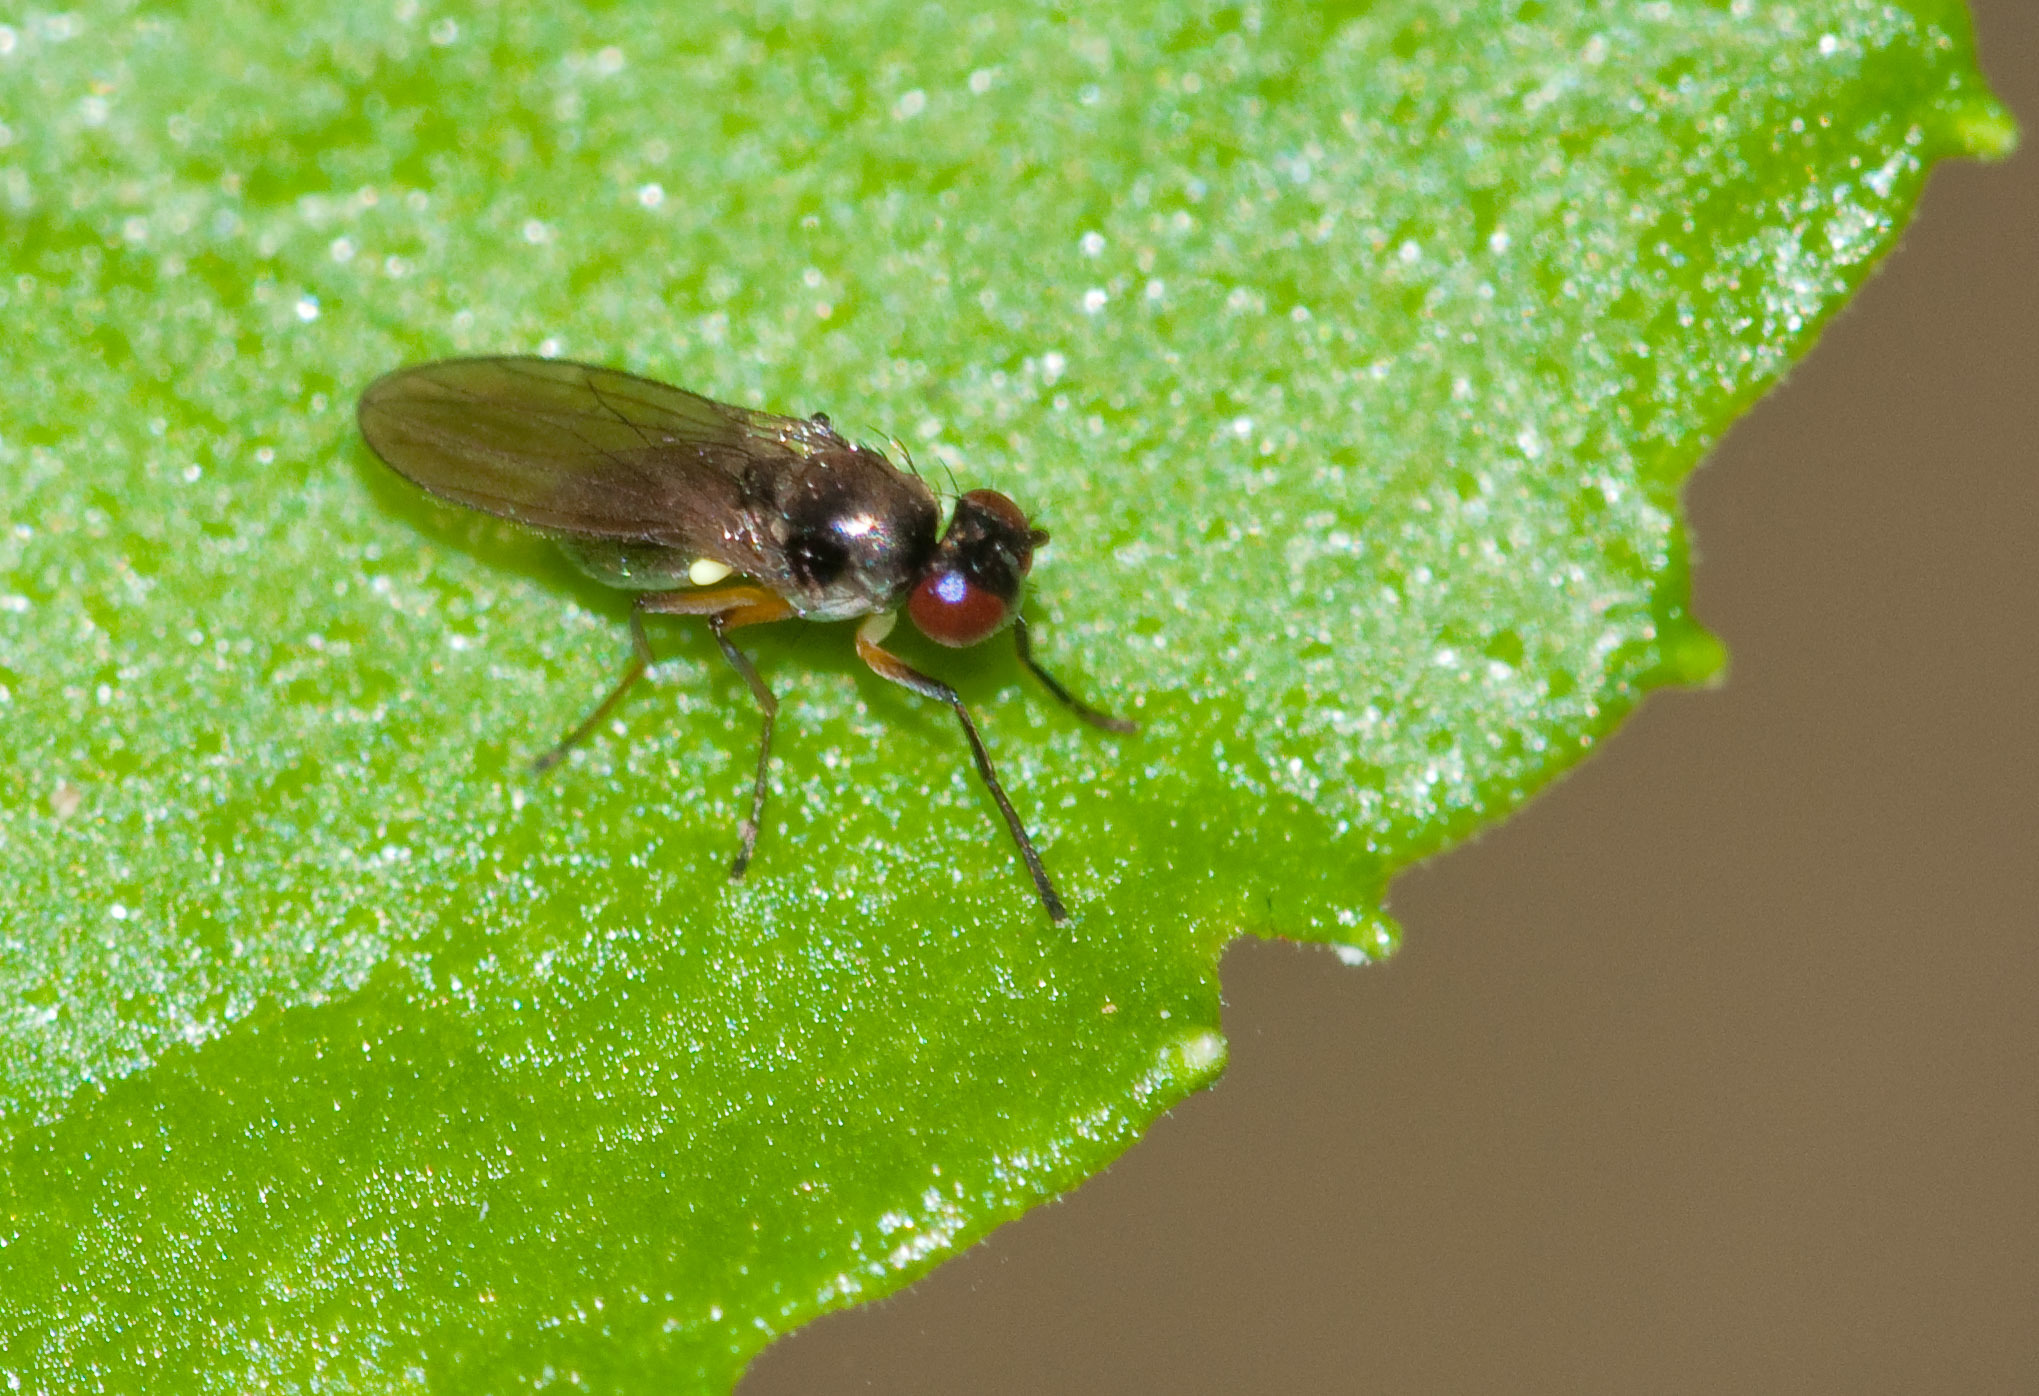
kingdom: Animalia
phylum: Arthropoda
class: Insecta
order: Diptera
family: Ephydridae
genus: Hydrellia
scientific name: Hydrellia tritici
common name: Shore fly
